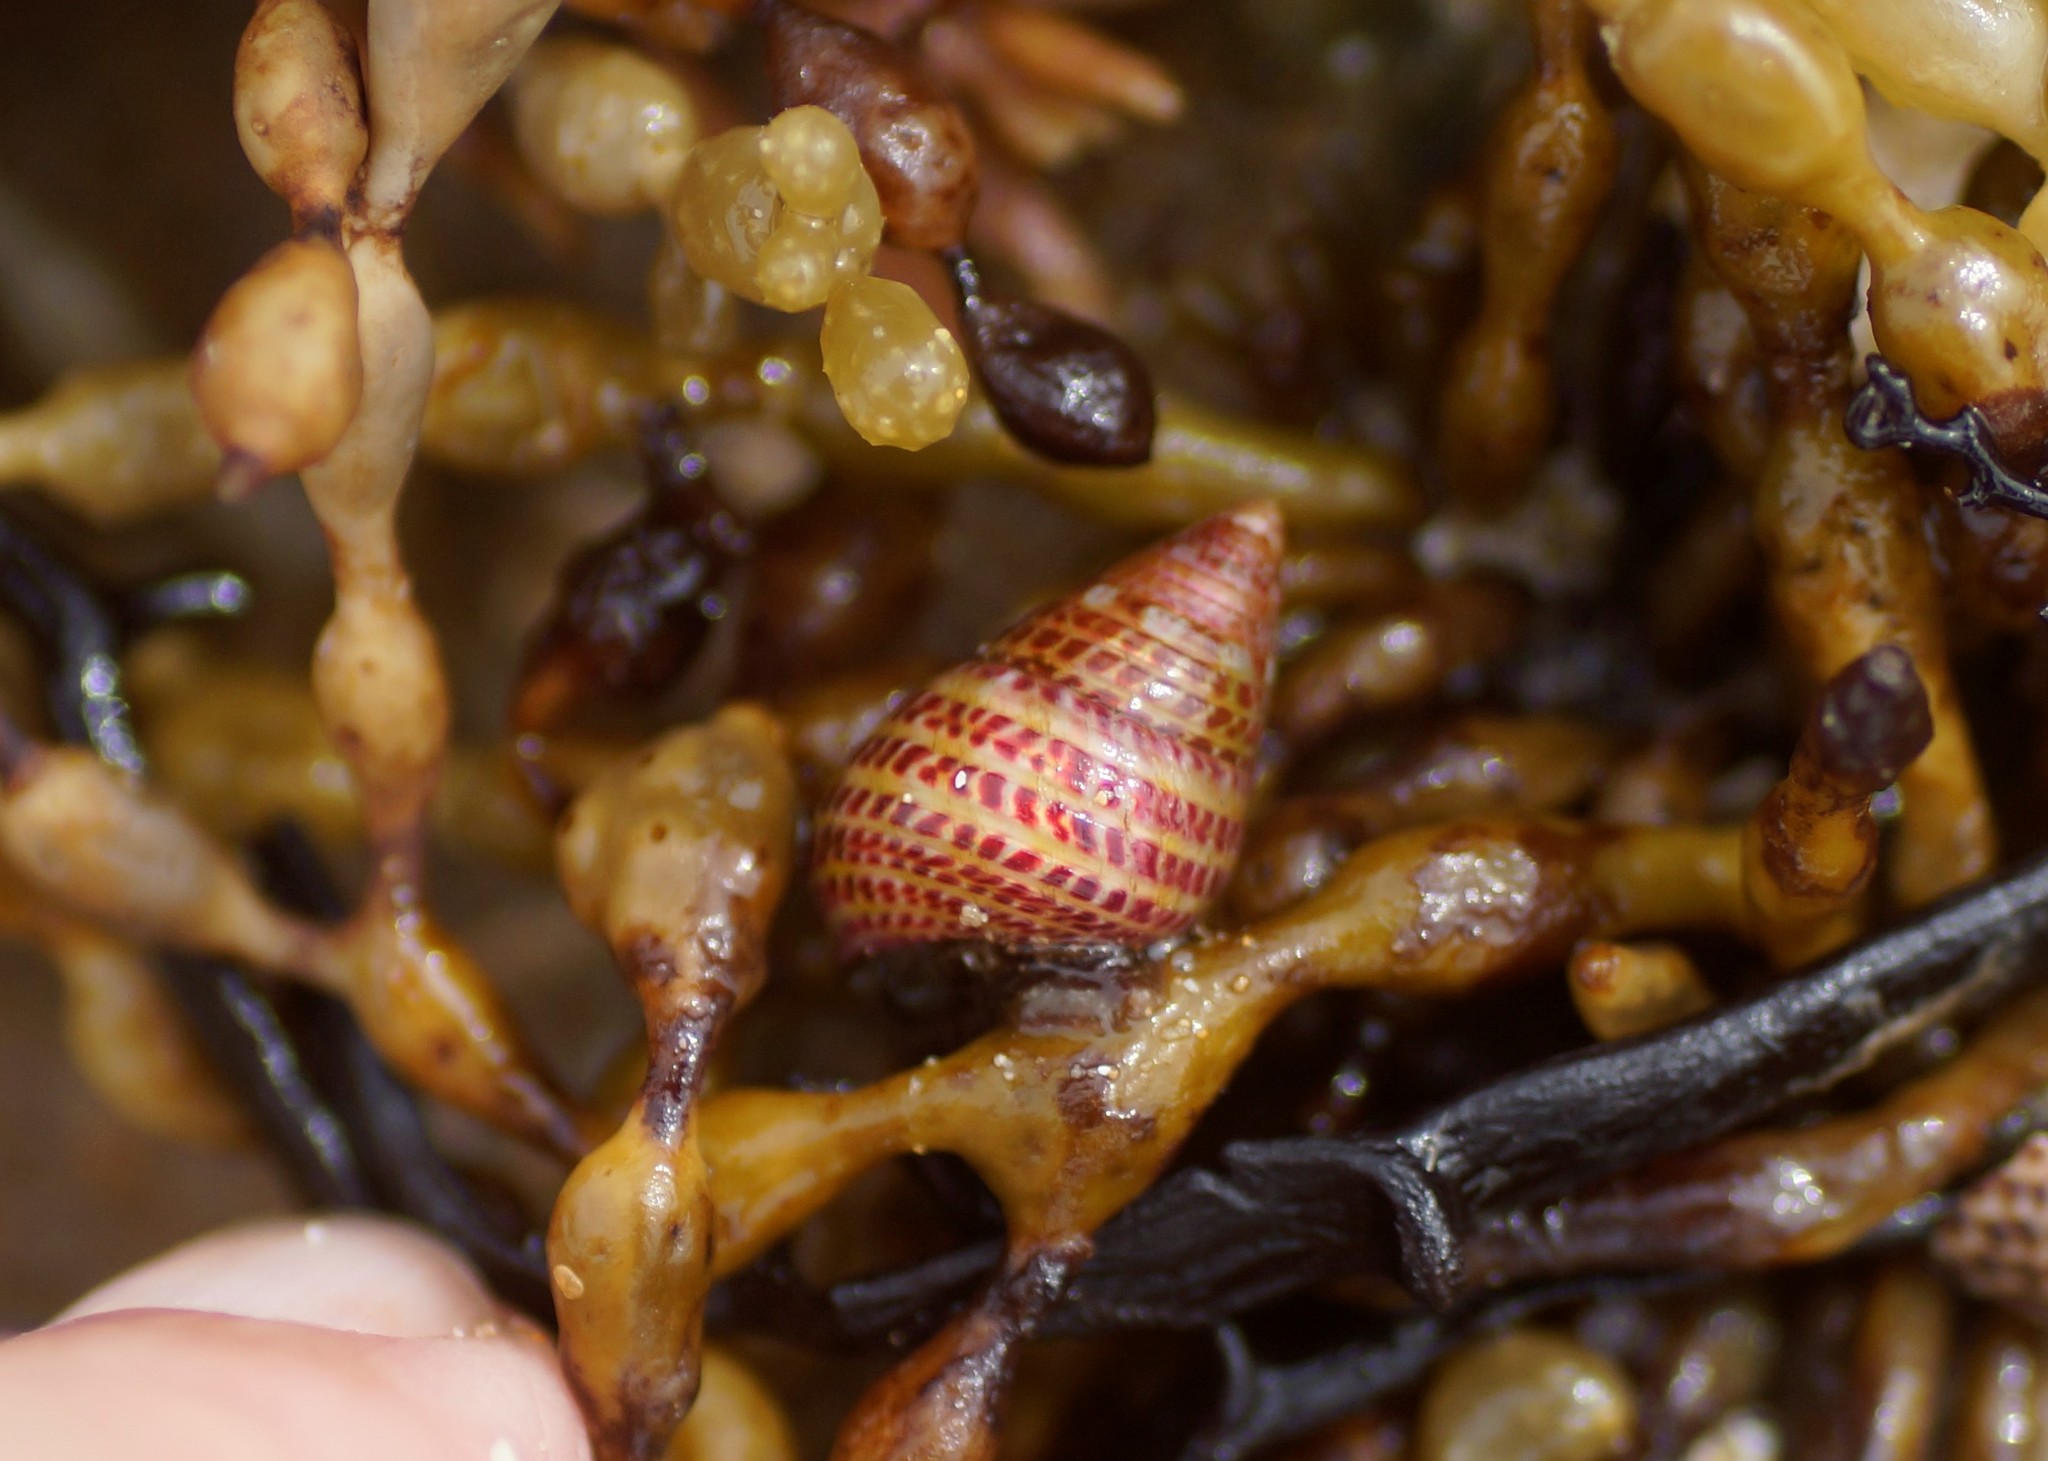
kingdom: Animalia
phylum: Mollusca
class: Gastropoda
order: Trochida
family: Trochidae
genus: Prothalotia
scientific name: Prothalotia pulcherrima
